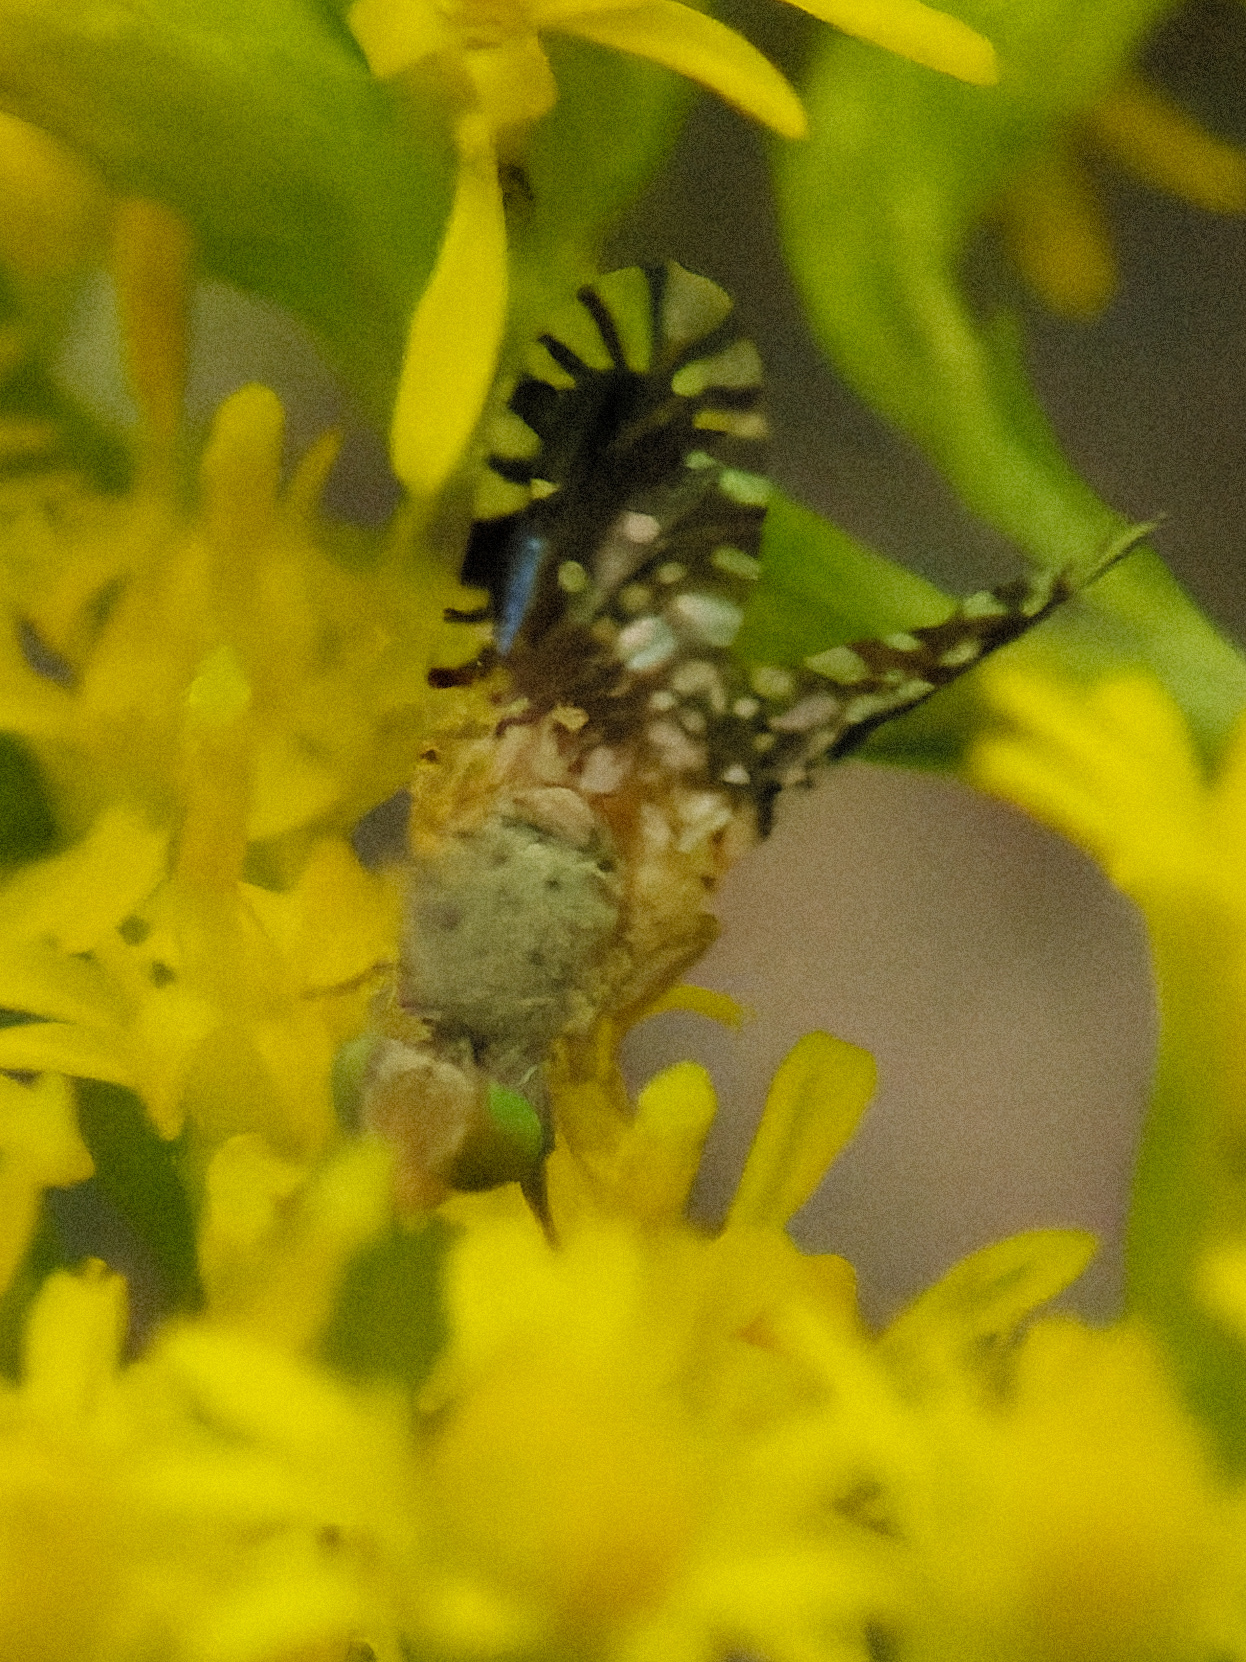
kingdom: Animalia
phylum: Arthropoda
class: Insecta
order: Diptera
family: Tephritidae
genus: Euaresta
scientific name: Euaresta bella
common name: Common ragweed fruit fly
